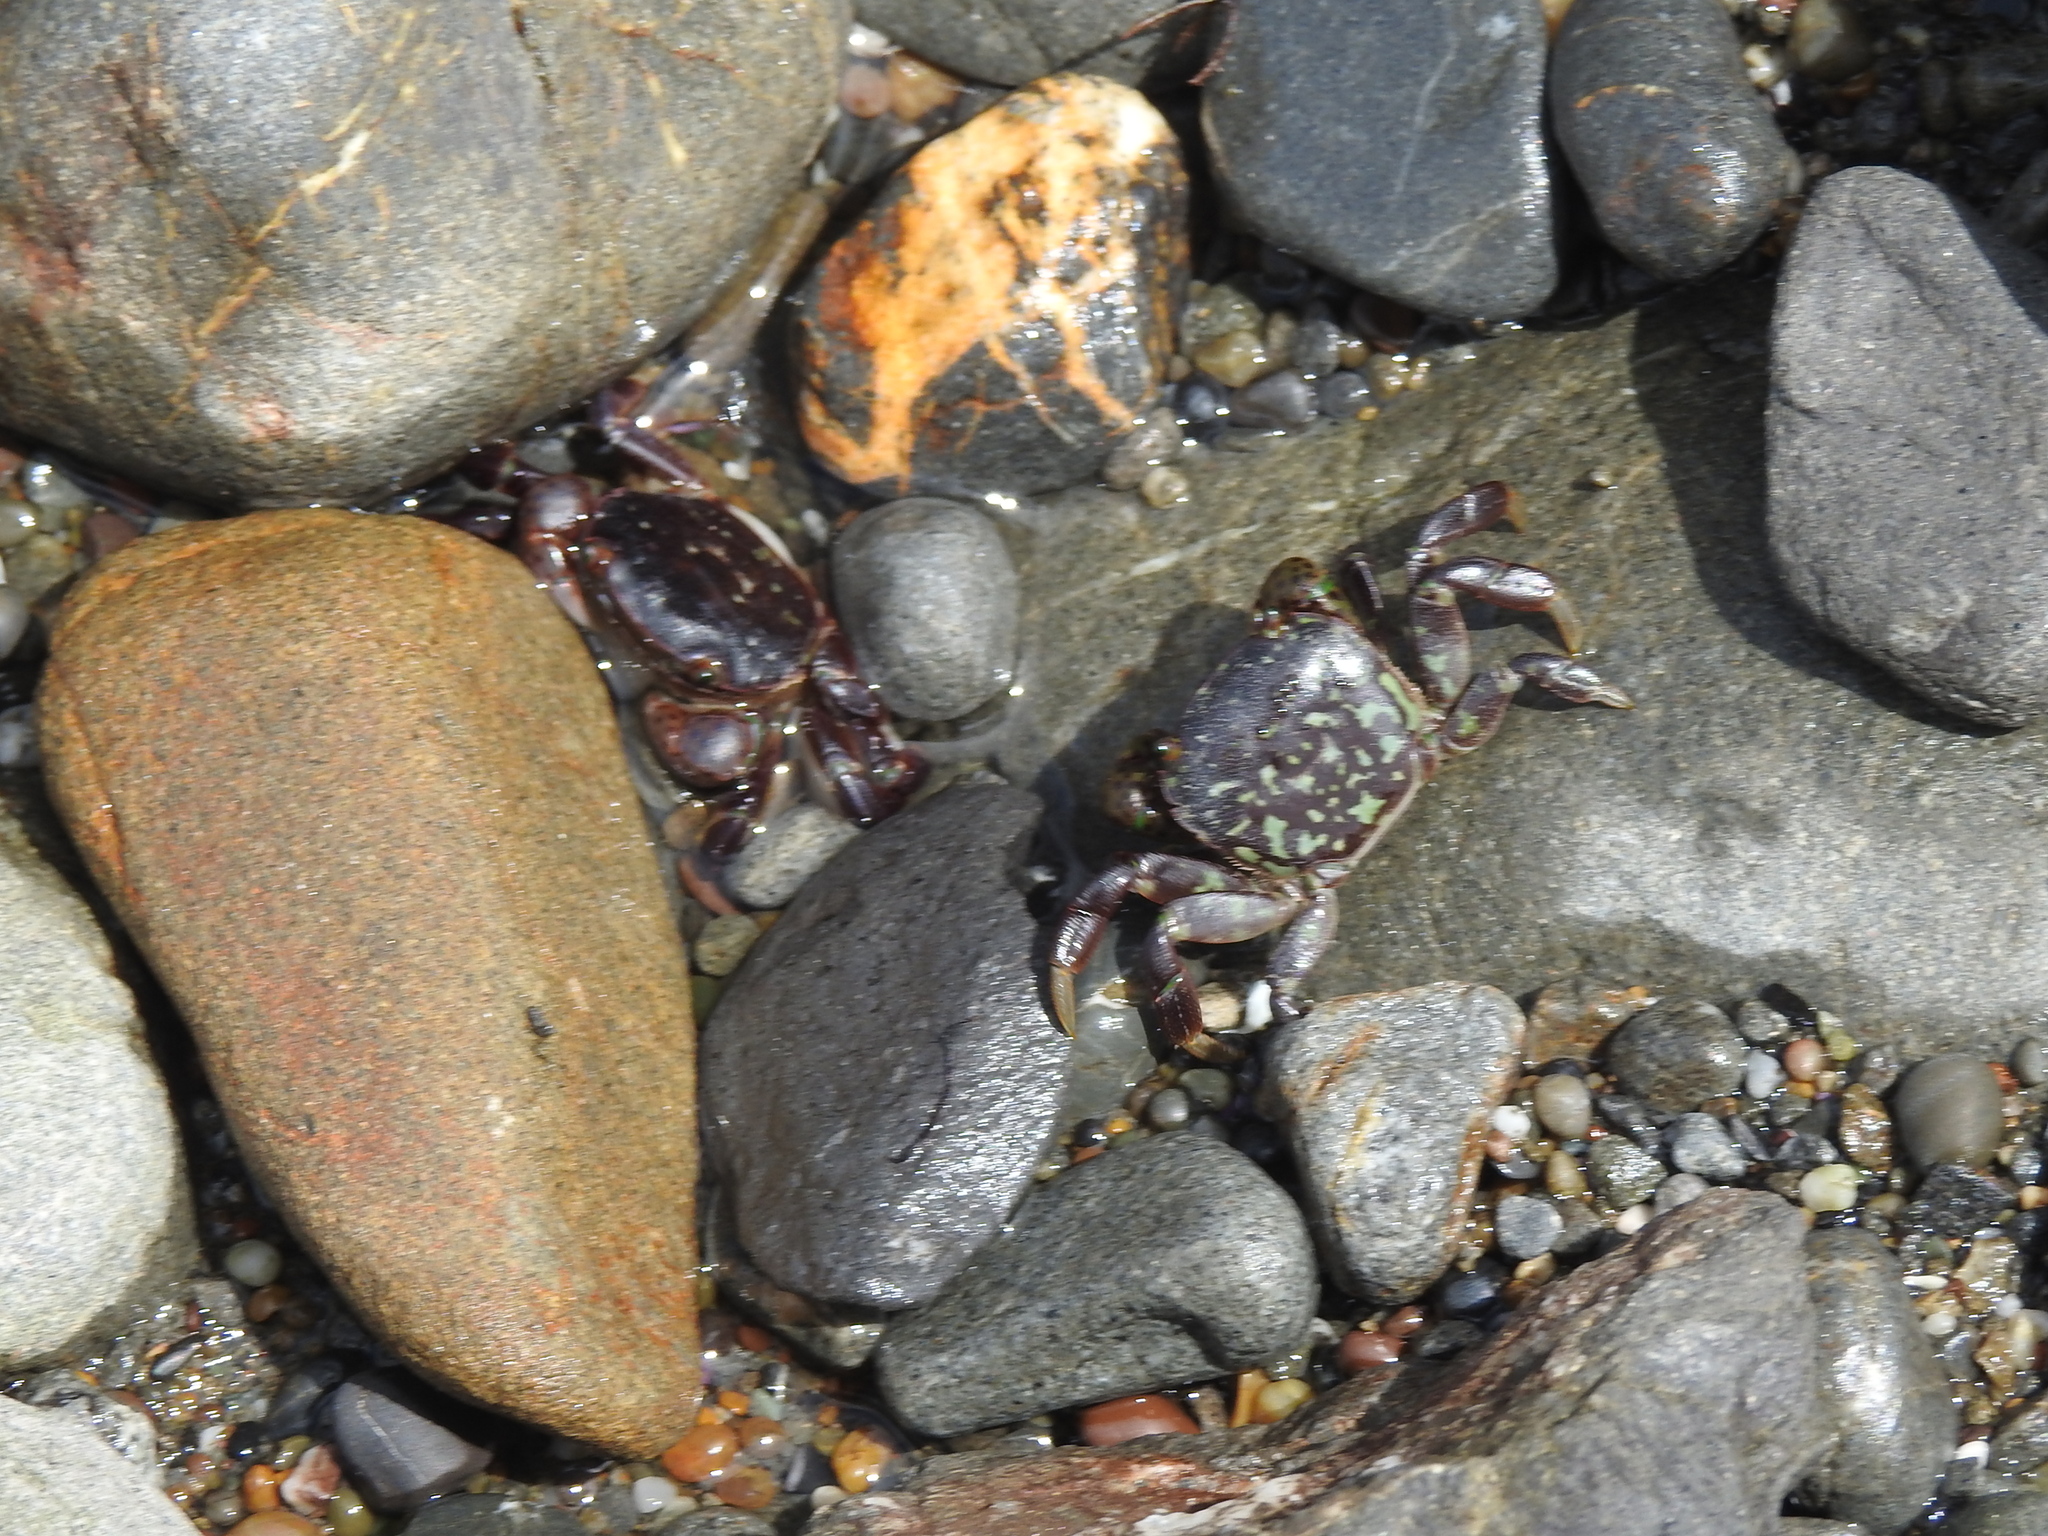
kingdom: Animalia
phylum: Arthropoda
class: Malacostraca
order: Decapoda
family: Varunidae
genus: Hemigrapsus
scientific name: Hemigrapsus nudus
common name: Purple shore crab
